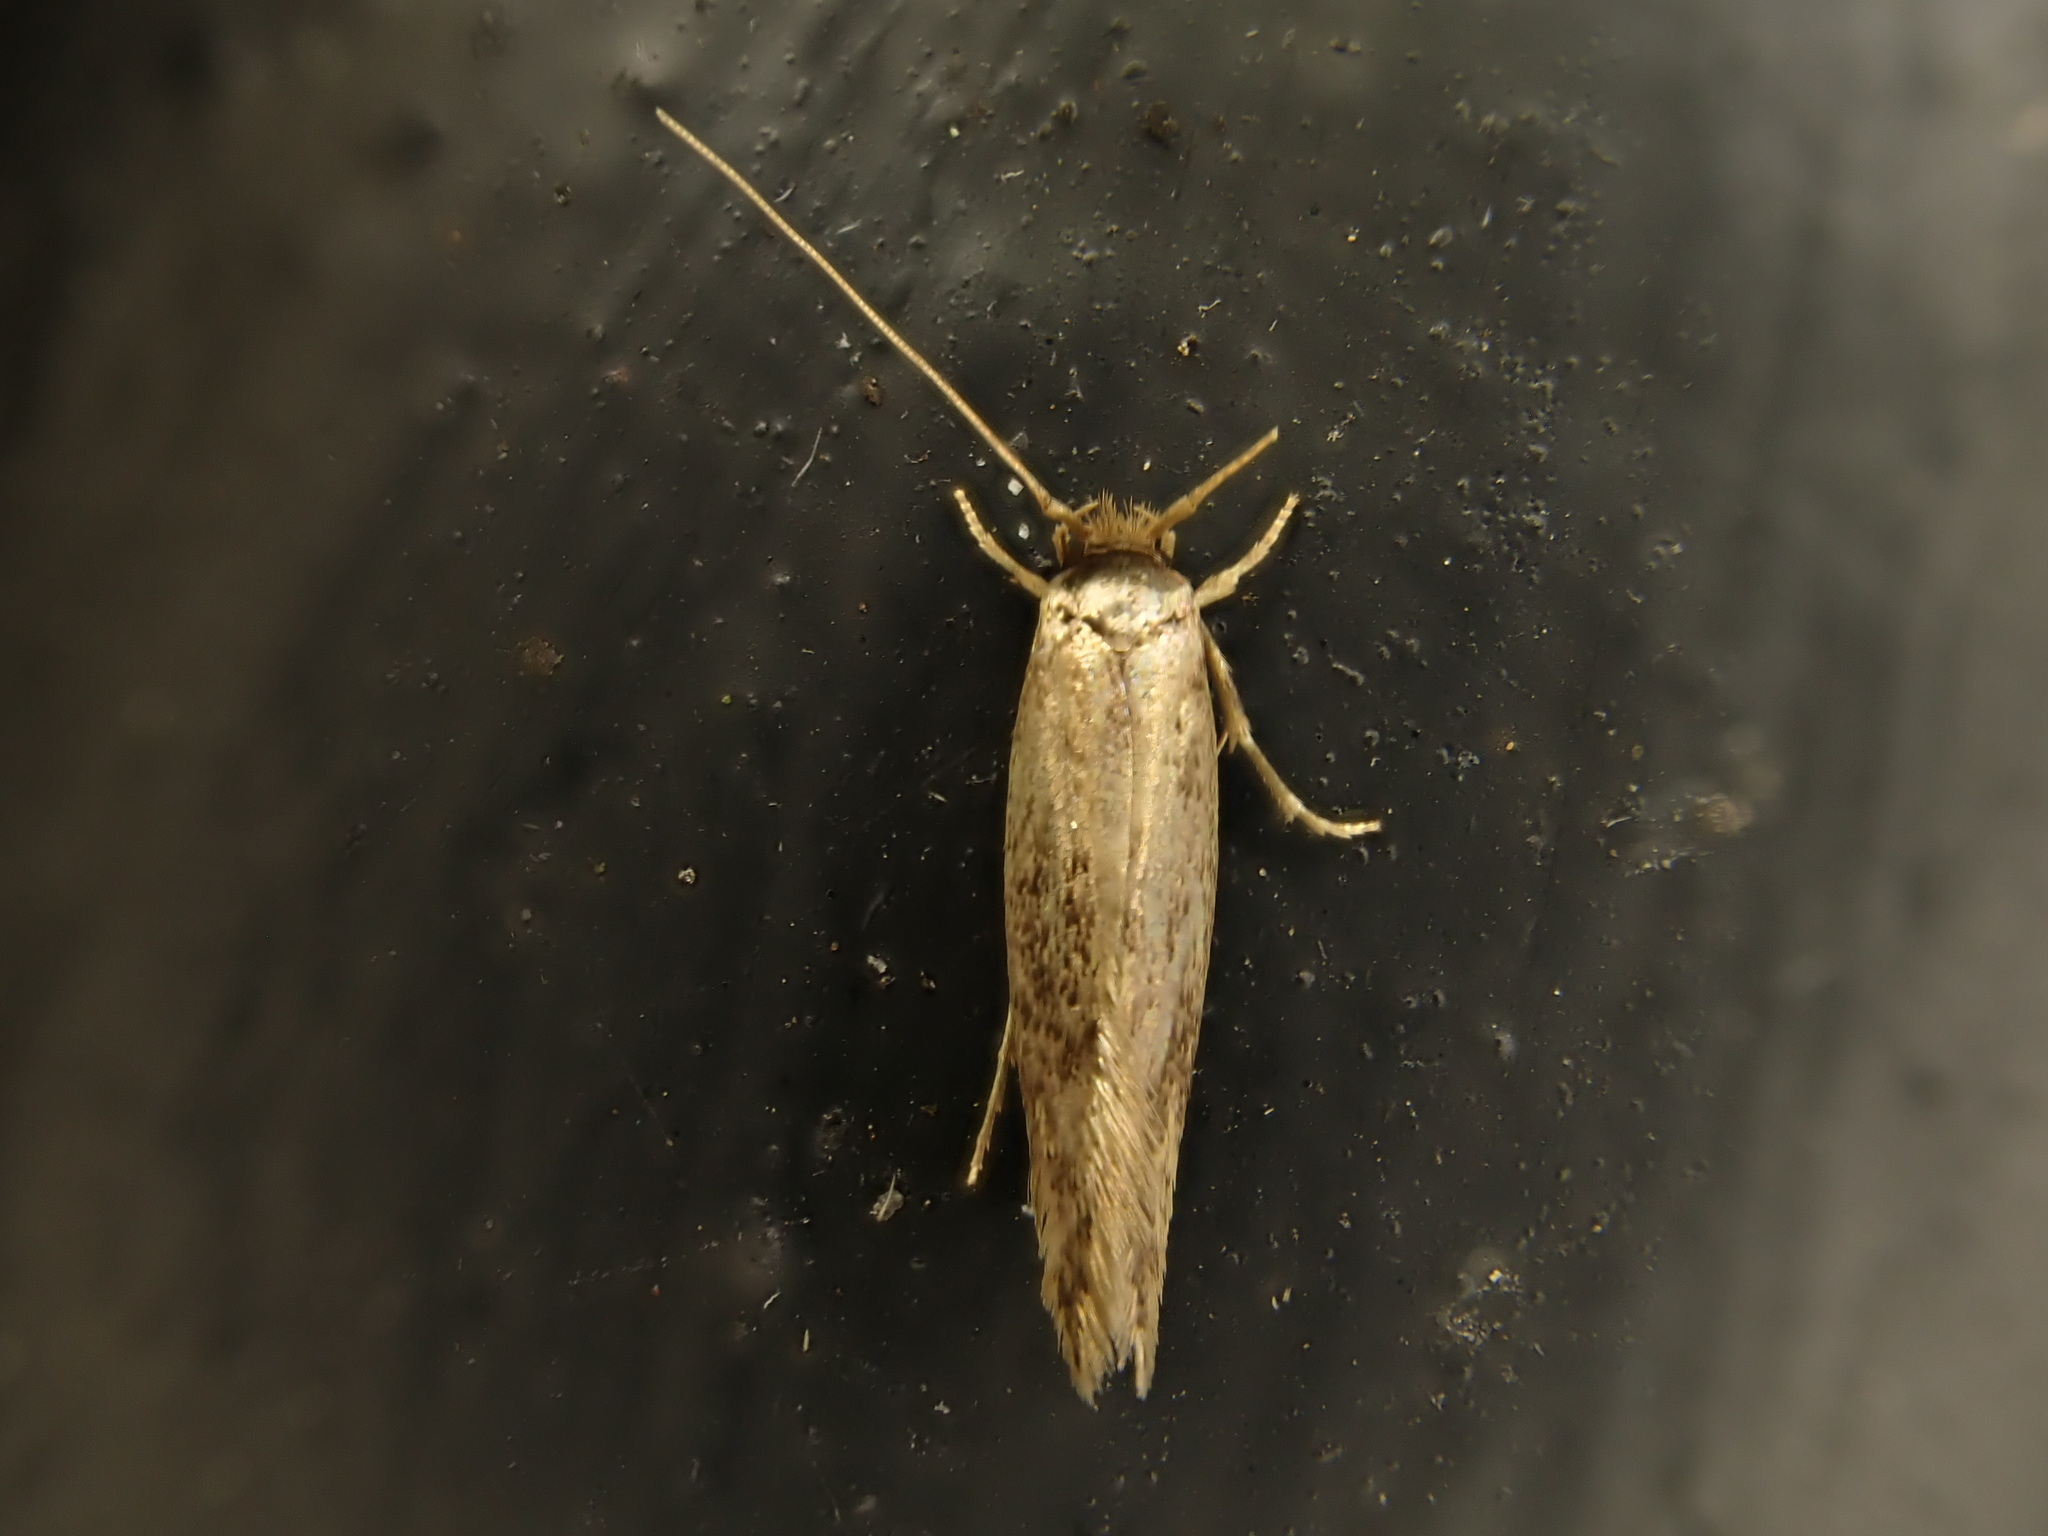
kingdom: Animalia
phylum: Arthropoda
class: Insecta
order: Lepidoptera
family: Tineidae
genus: Opogona
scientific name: Opogona omoscopa
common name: Moth
